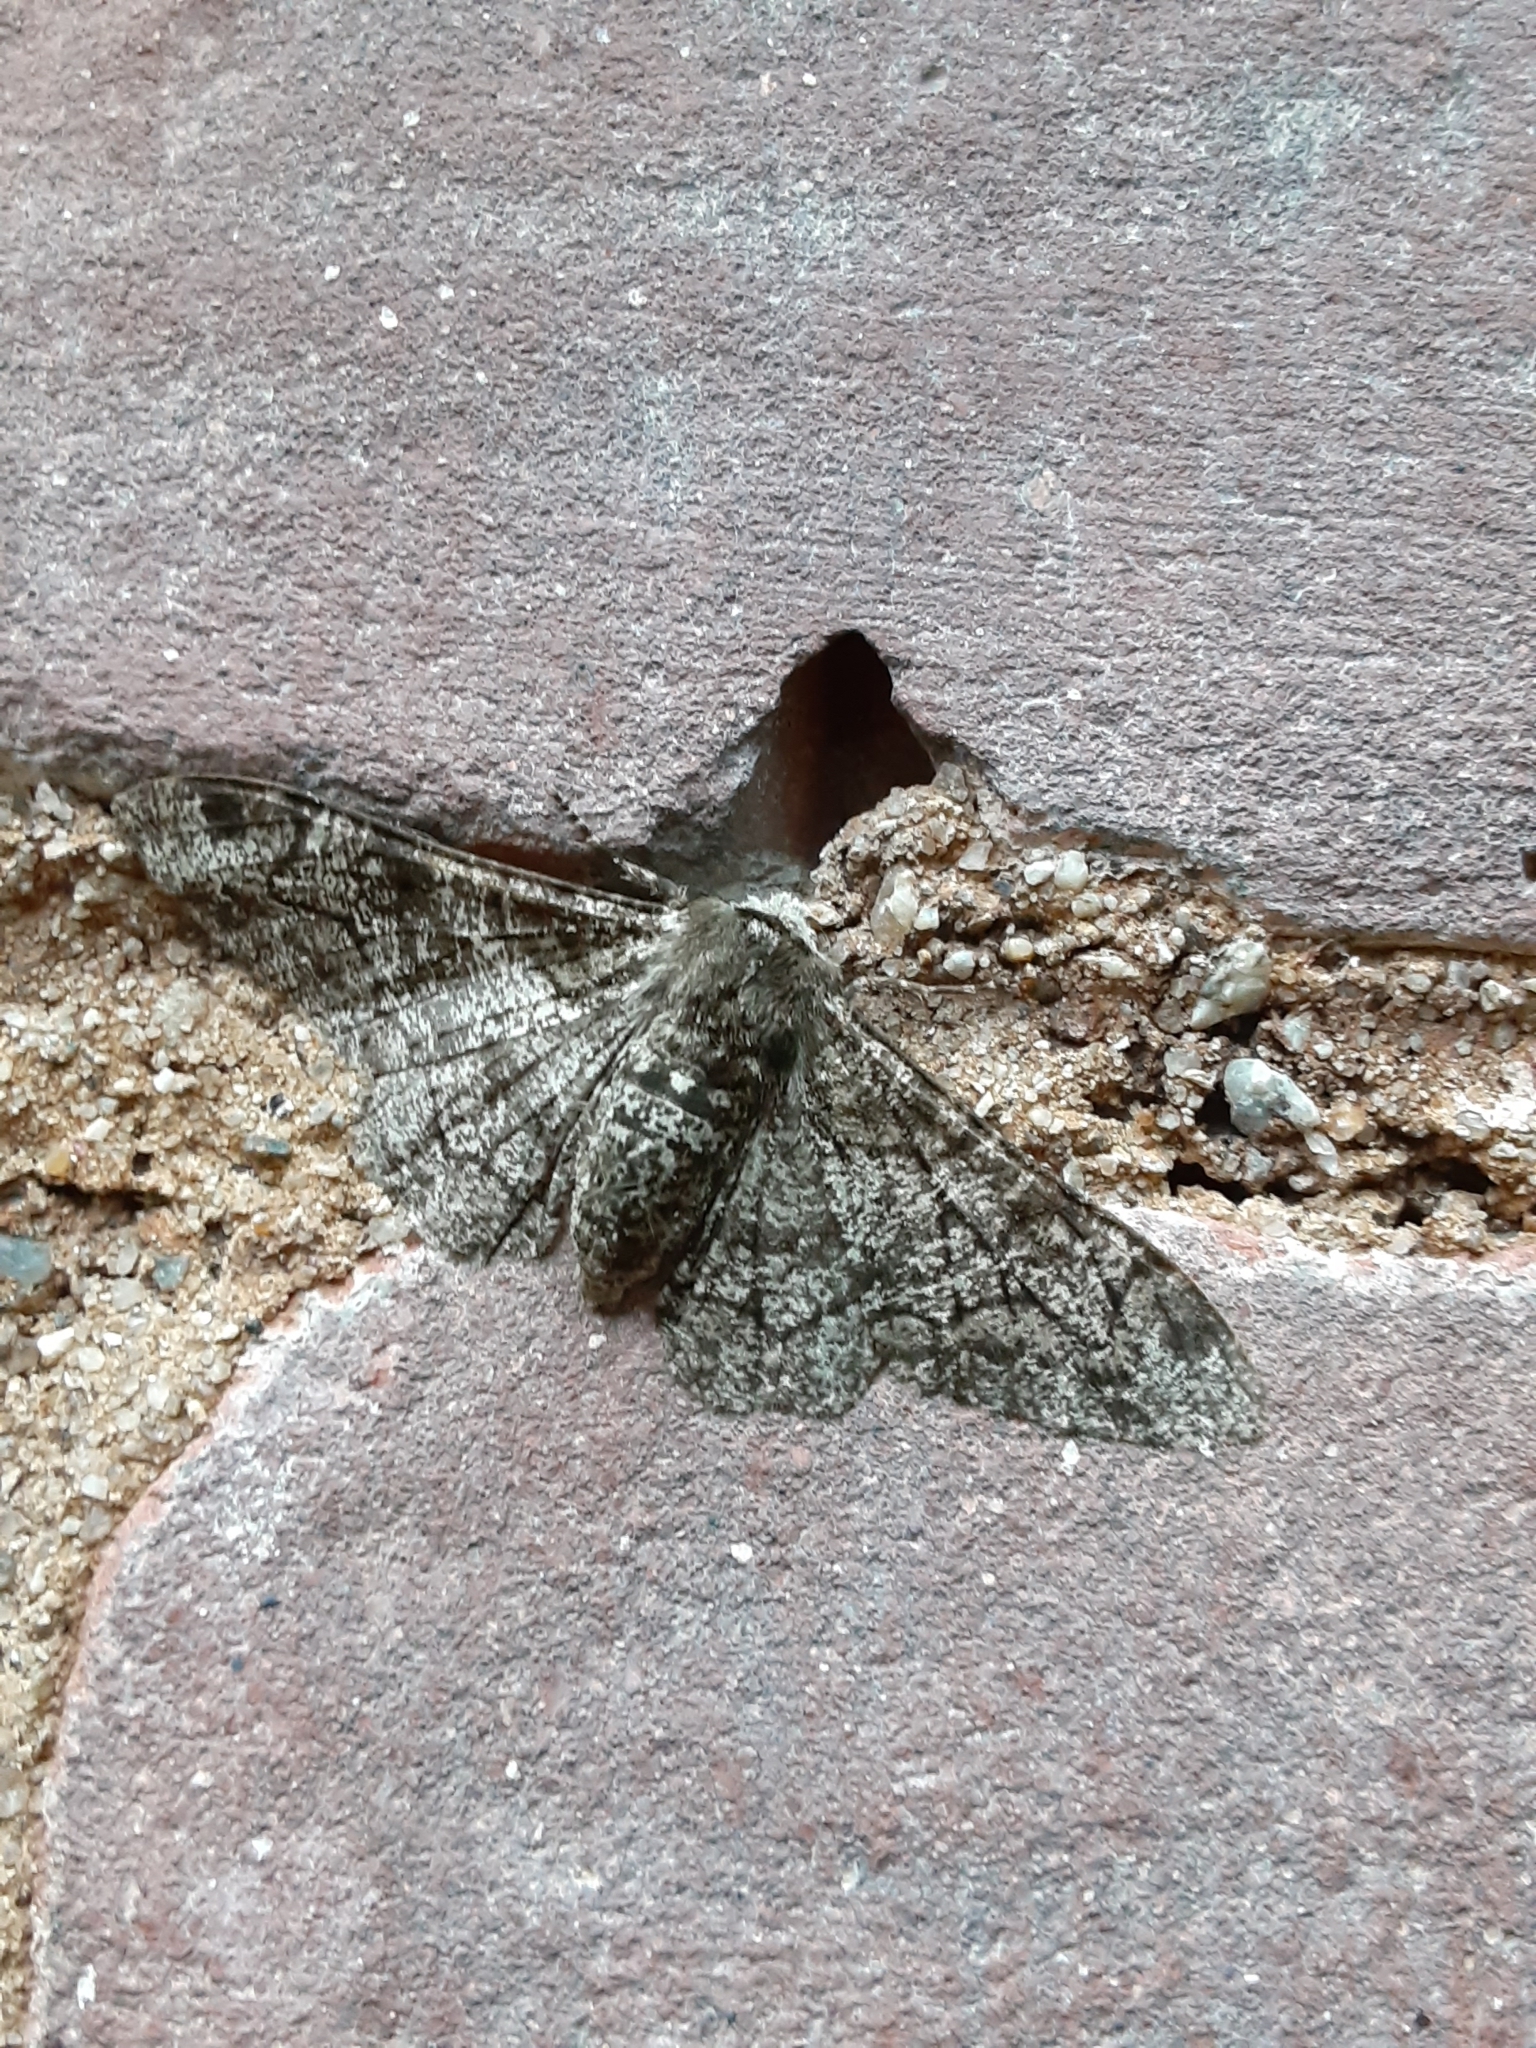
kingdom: Animalia
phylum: Arthropoda
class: Insecta
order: Lepidoptera
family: Geometridae
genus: Biston
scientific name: Biston betularia
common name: Peppered moth
